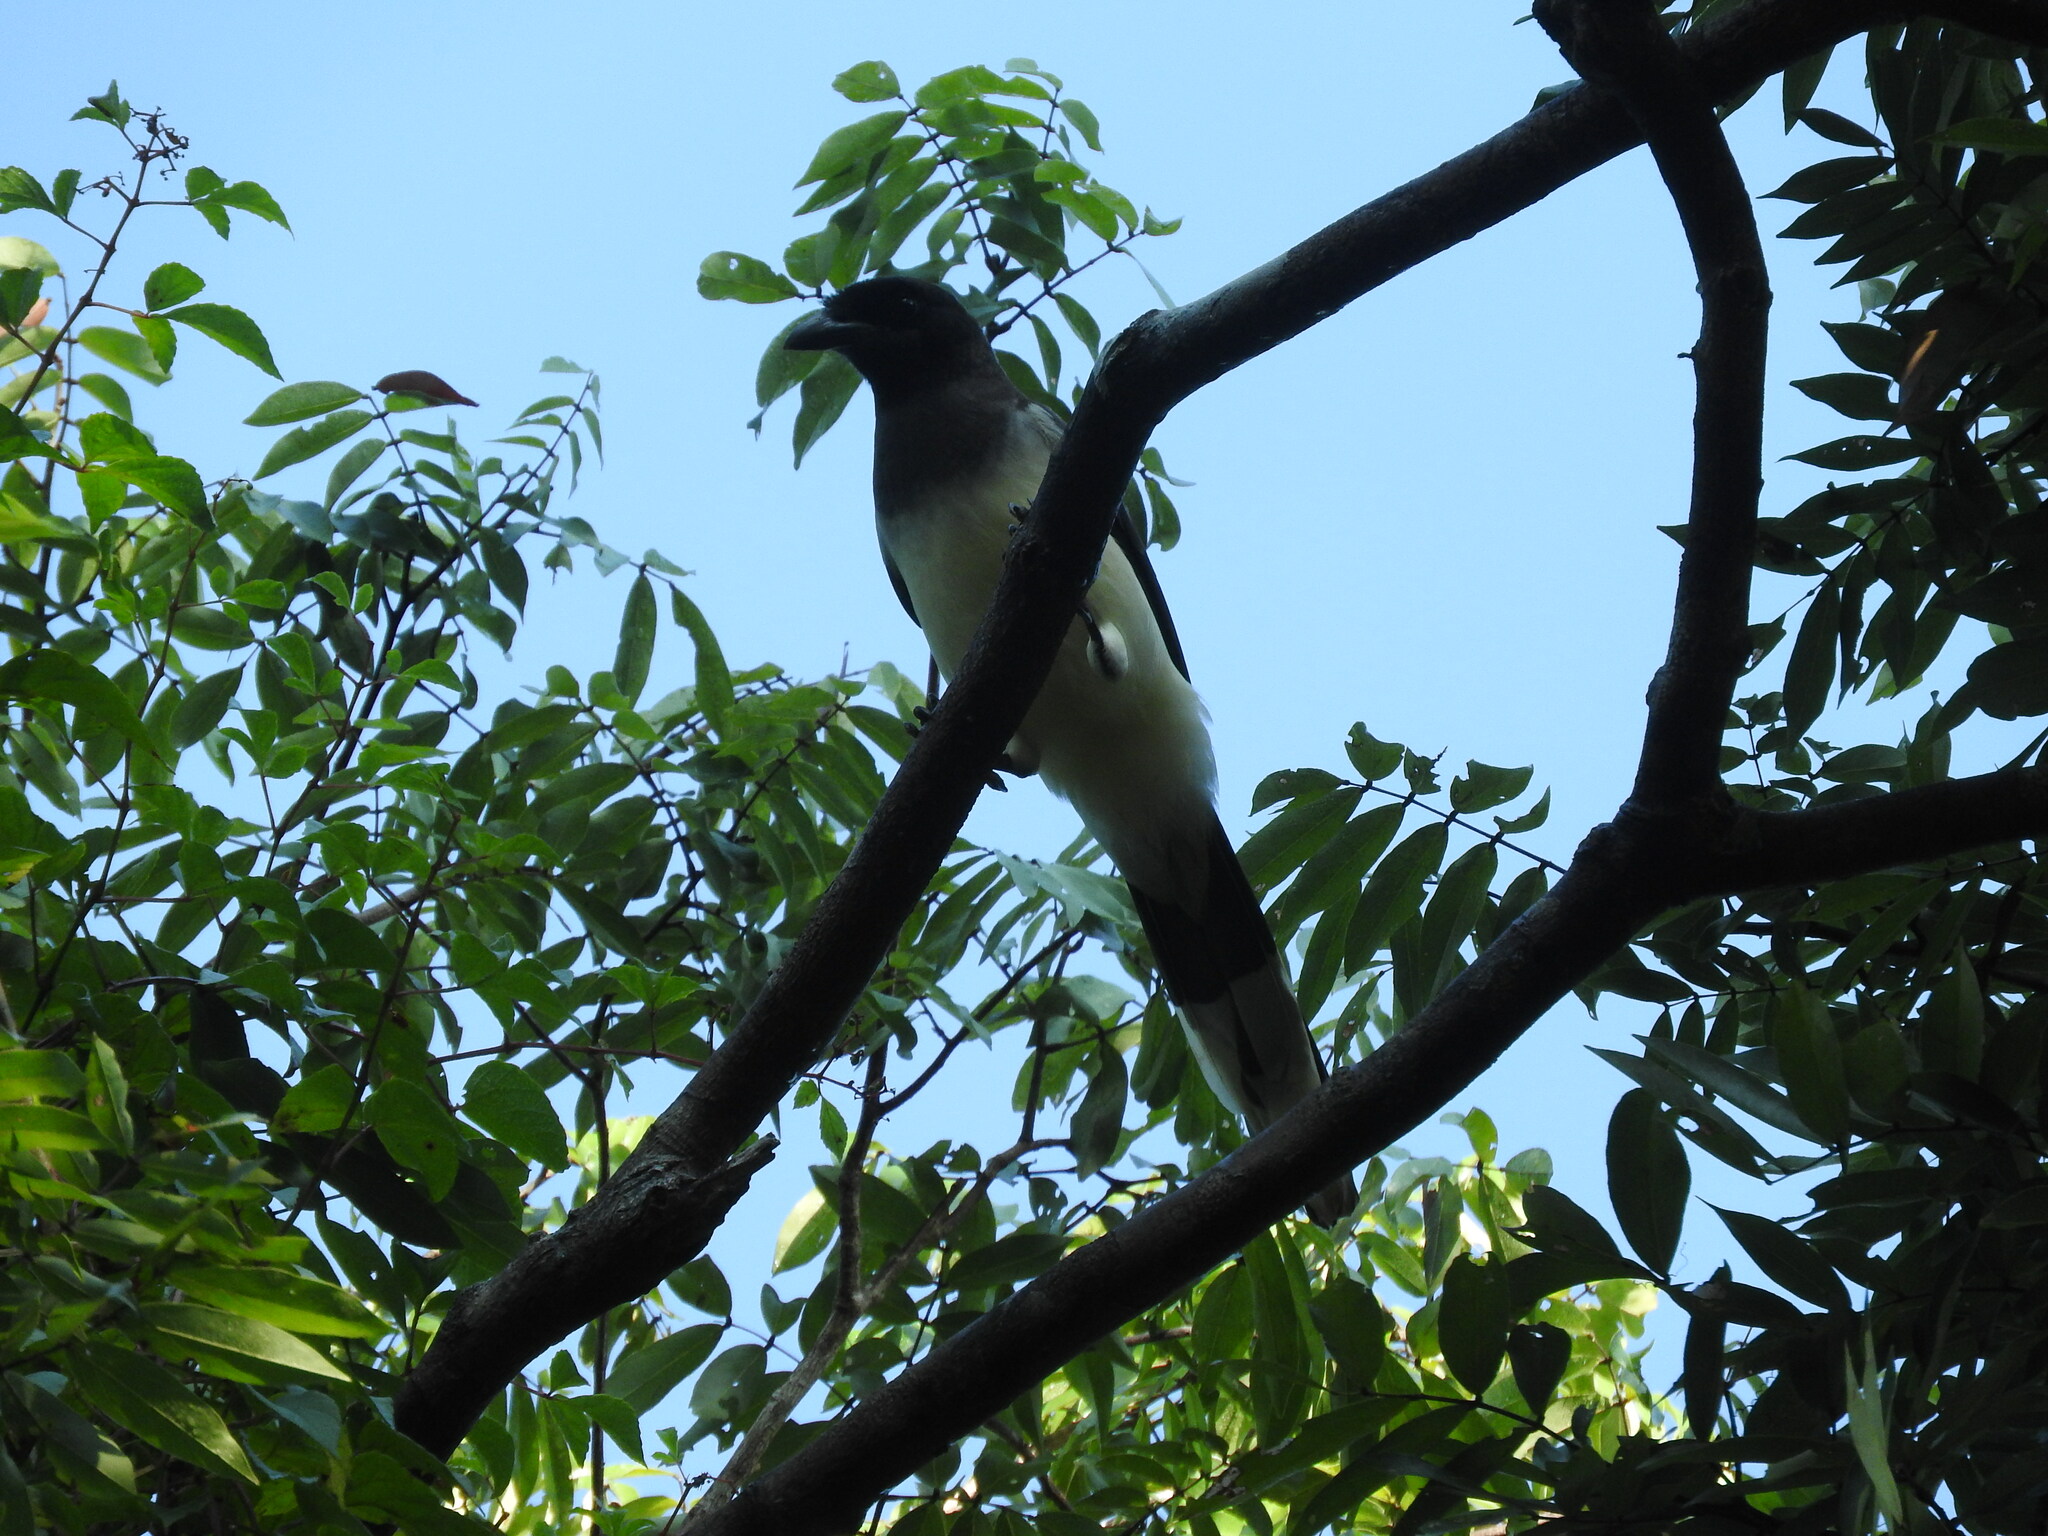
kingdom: Animalia
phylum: Chordata
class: Aves
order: Passeriformes
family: Corvidae
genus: Psilorhinus
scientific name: Psilorhinus morio
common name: Brown jay
